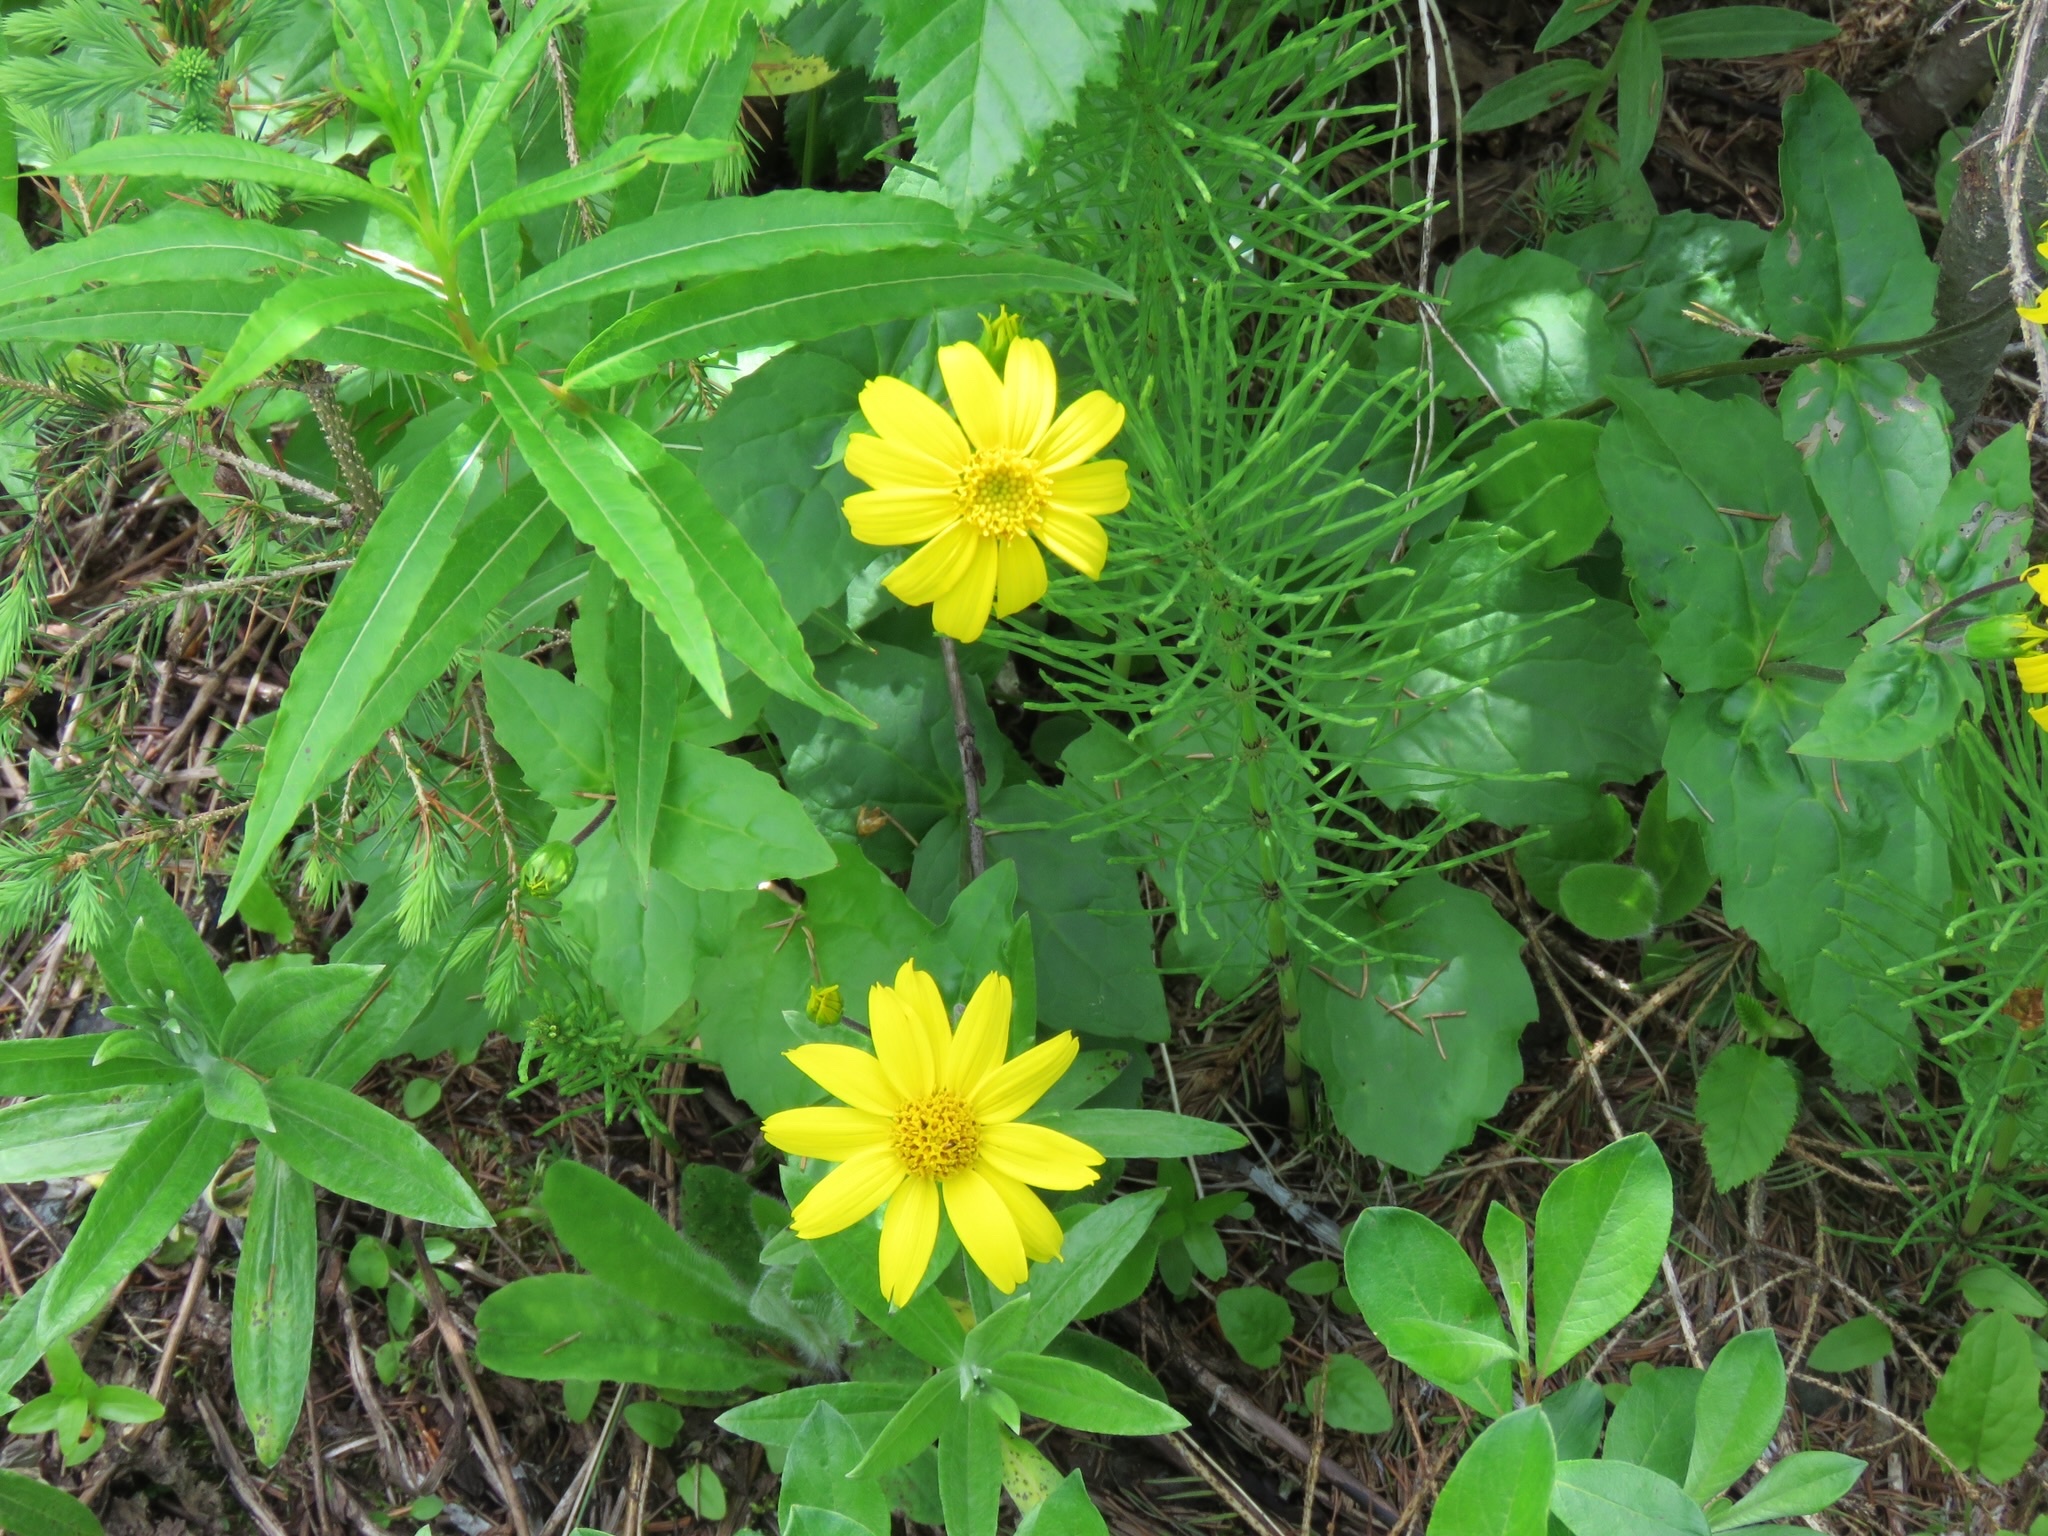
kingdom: Plantae
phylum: Tracheophyta
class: Magnoliopsida
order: Asterales
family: Asteraceae
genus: Arnica
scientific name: Arnica latifolia
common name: Arnica
